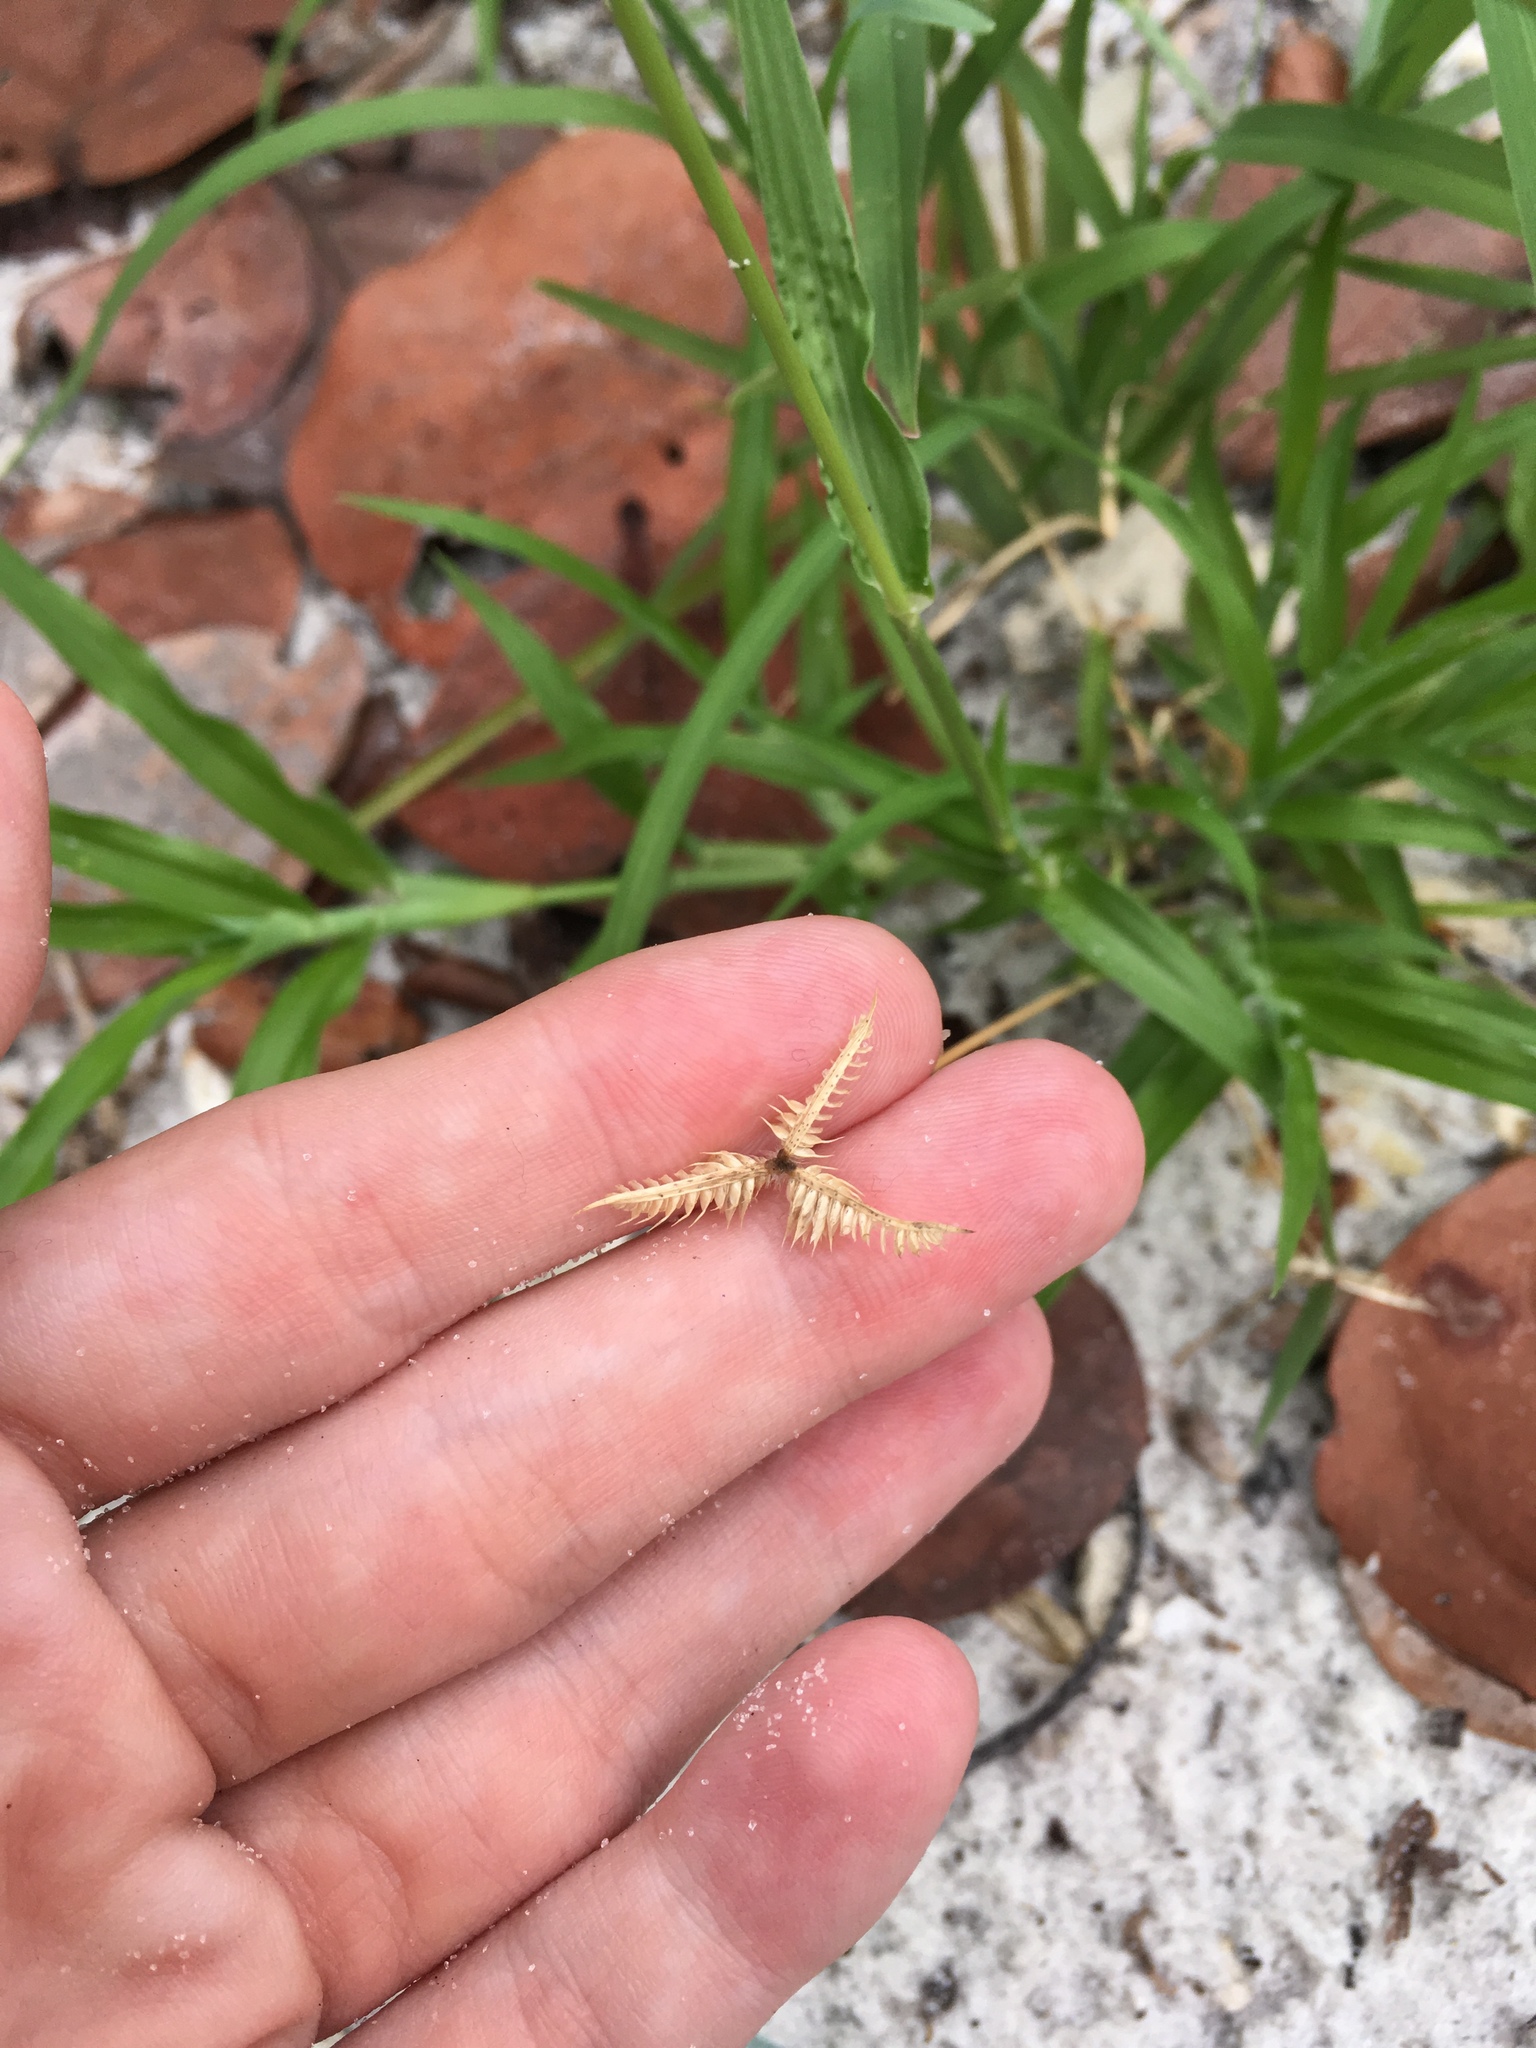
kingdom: Plantae
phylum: Tracheophyta
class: Liliopsida
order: Poales
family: Poaceae
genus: Dactyloctenium
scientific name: Dactyloctenium aegyptium
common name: Egyptian grass
